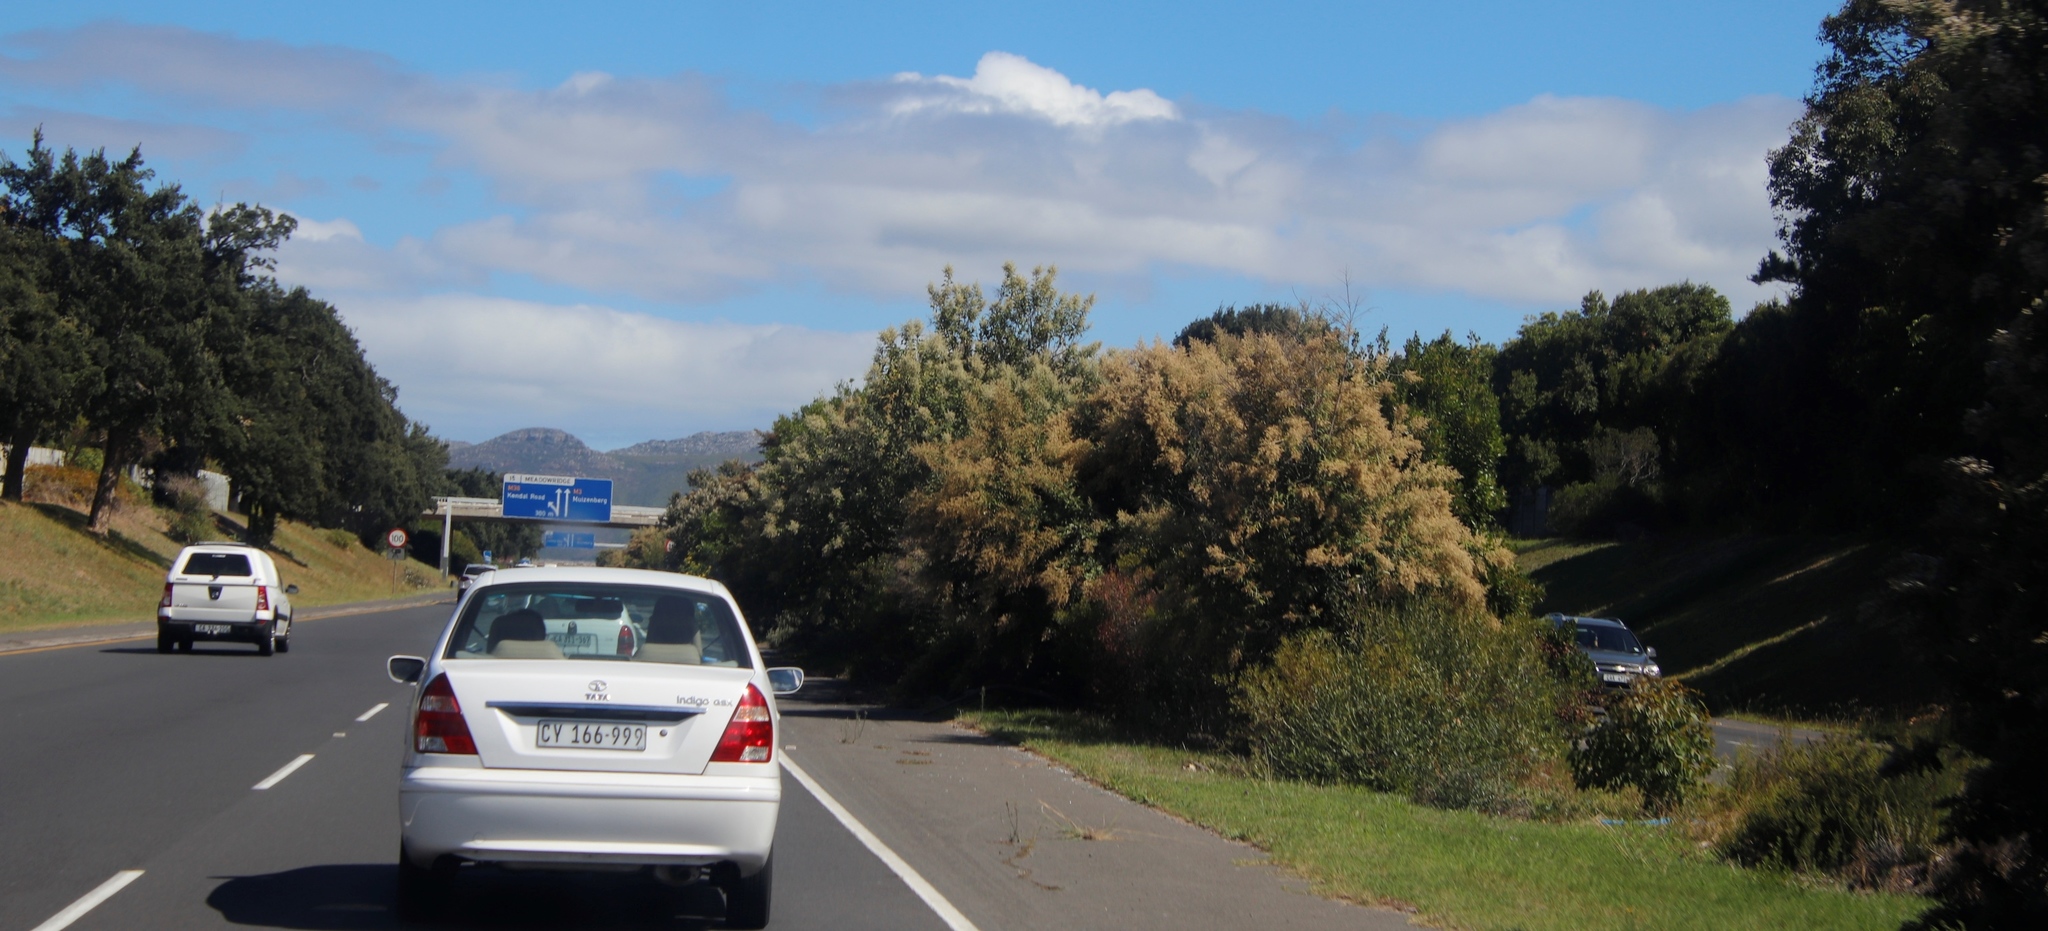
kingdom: Plantae
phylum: Tracheophyta
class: Magnoliopsida
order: Asterales
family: Asteraceae
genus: Tarchonanthus
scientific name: Tarchonanthus littoralis
